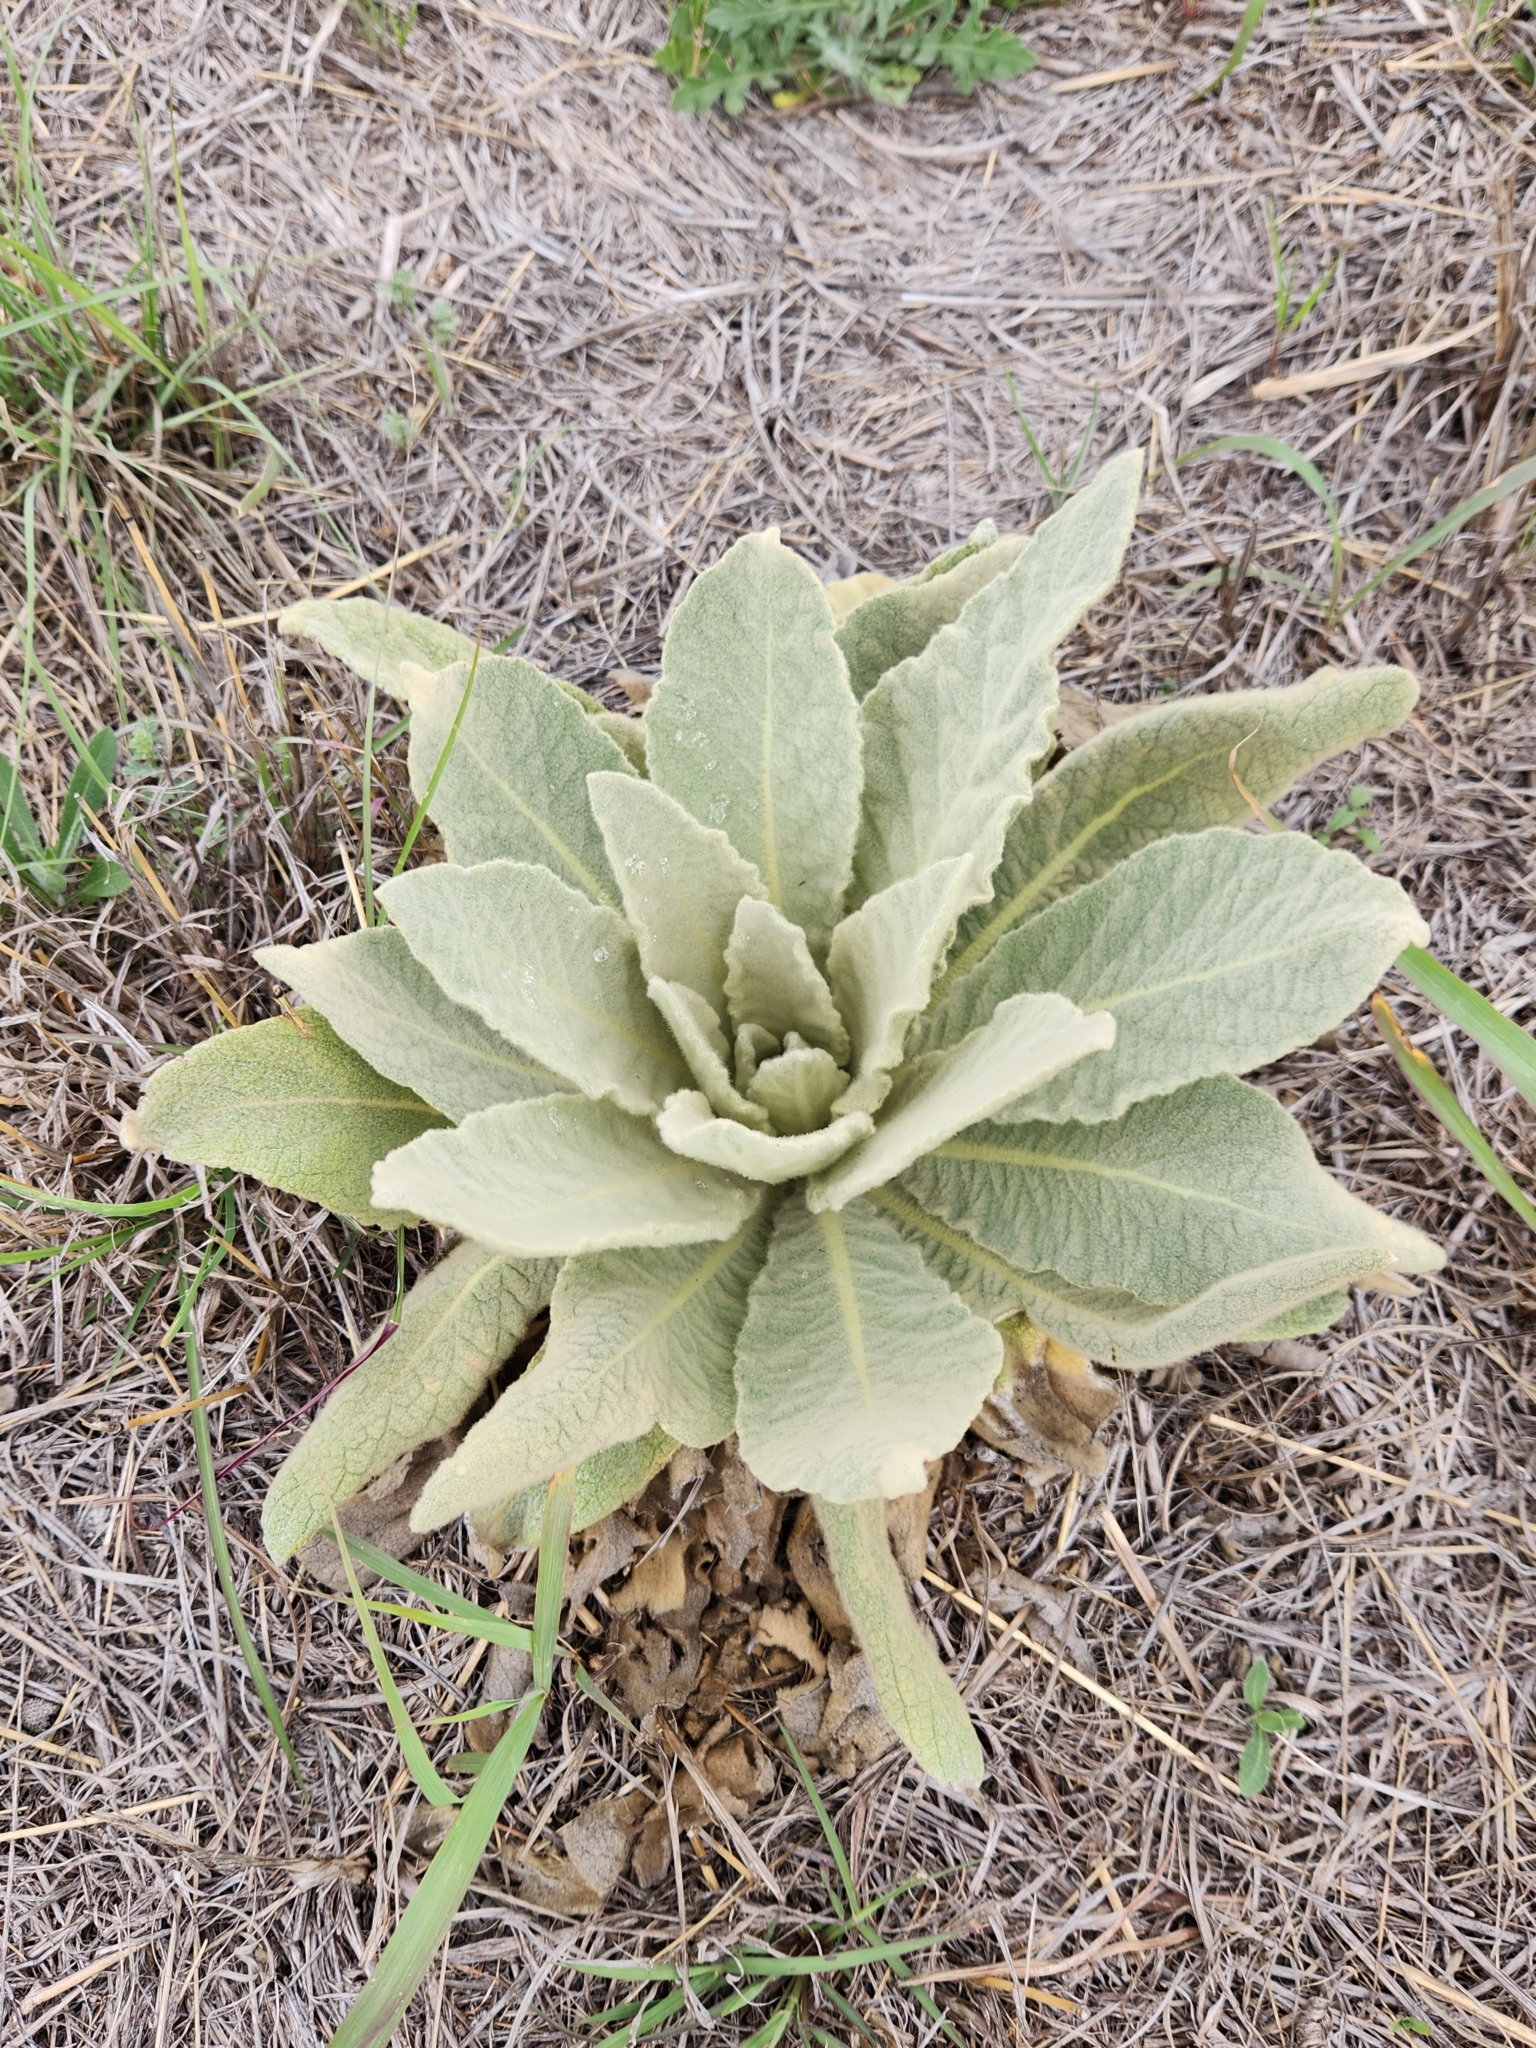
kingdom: Plantae
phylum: Tracheophyta
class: Magnoliopsida
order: Lamiales
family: Scrophulariaceae
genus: Verbascum
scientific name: Verbascum thapsus
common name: Common mullein
